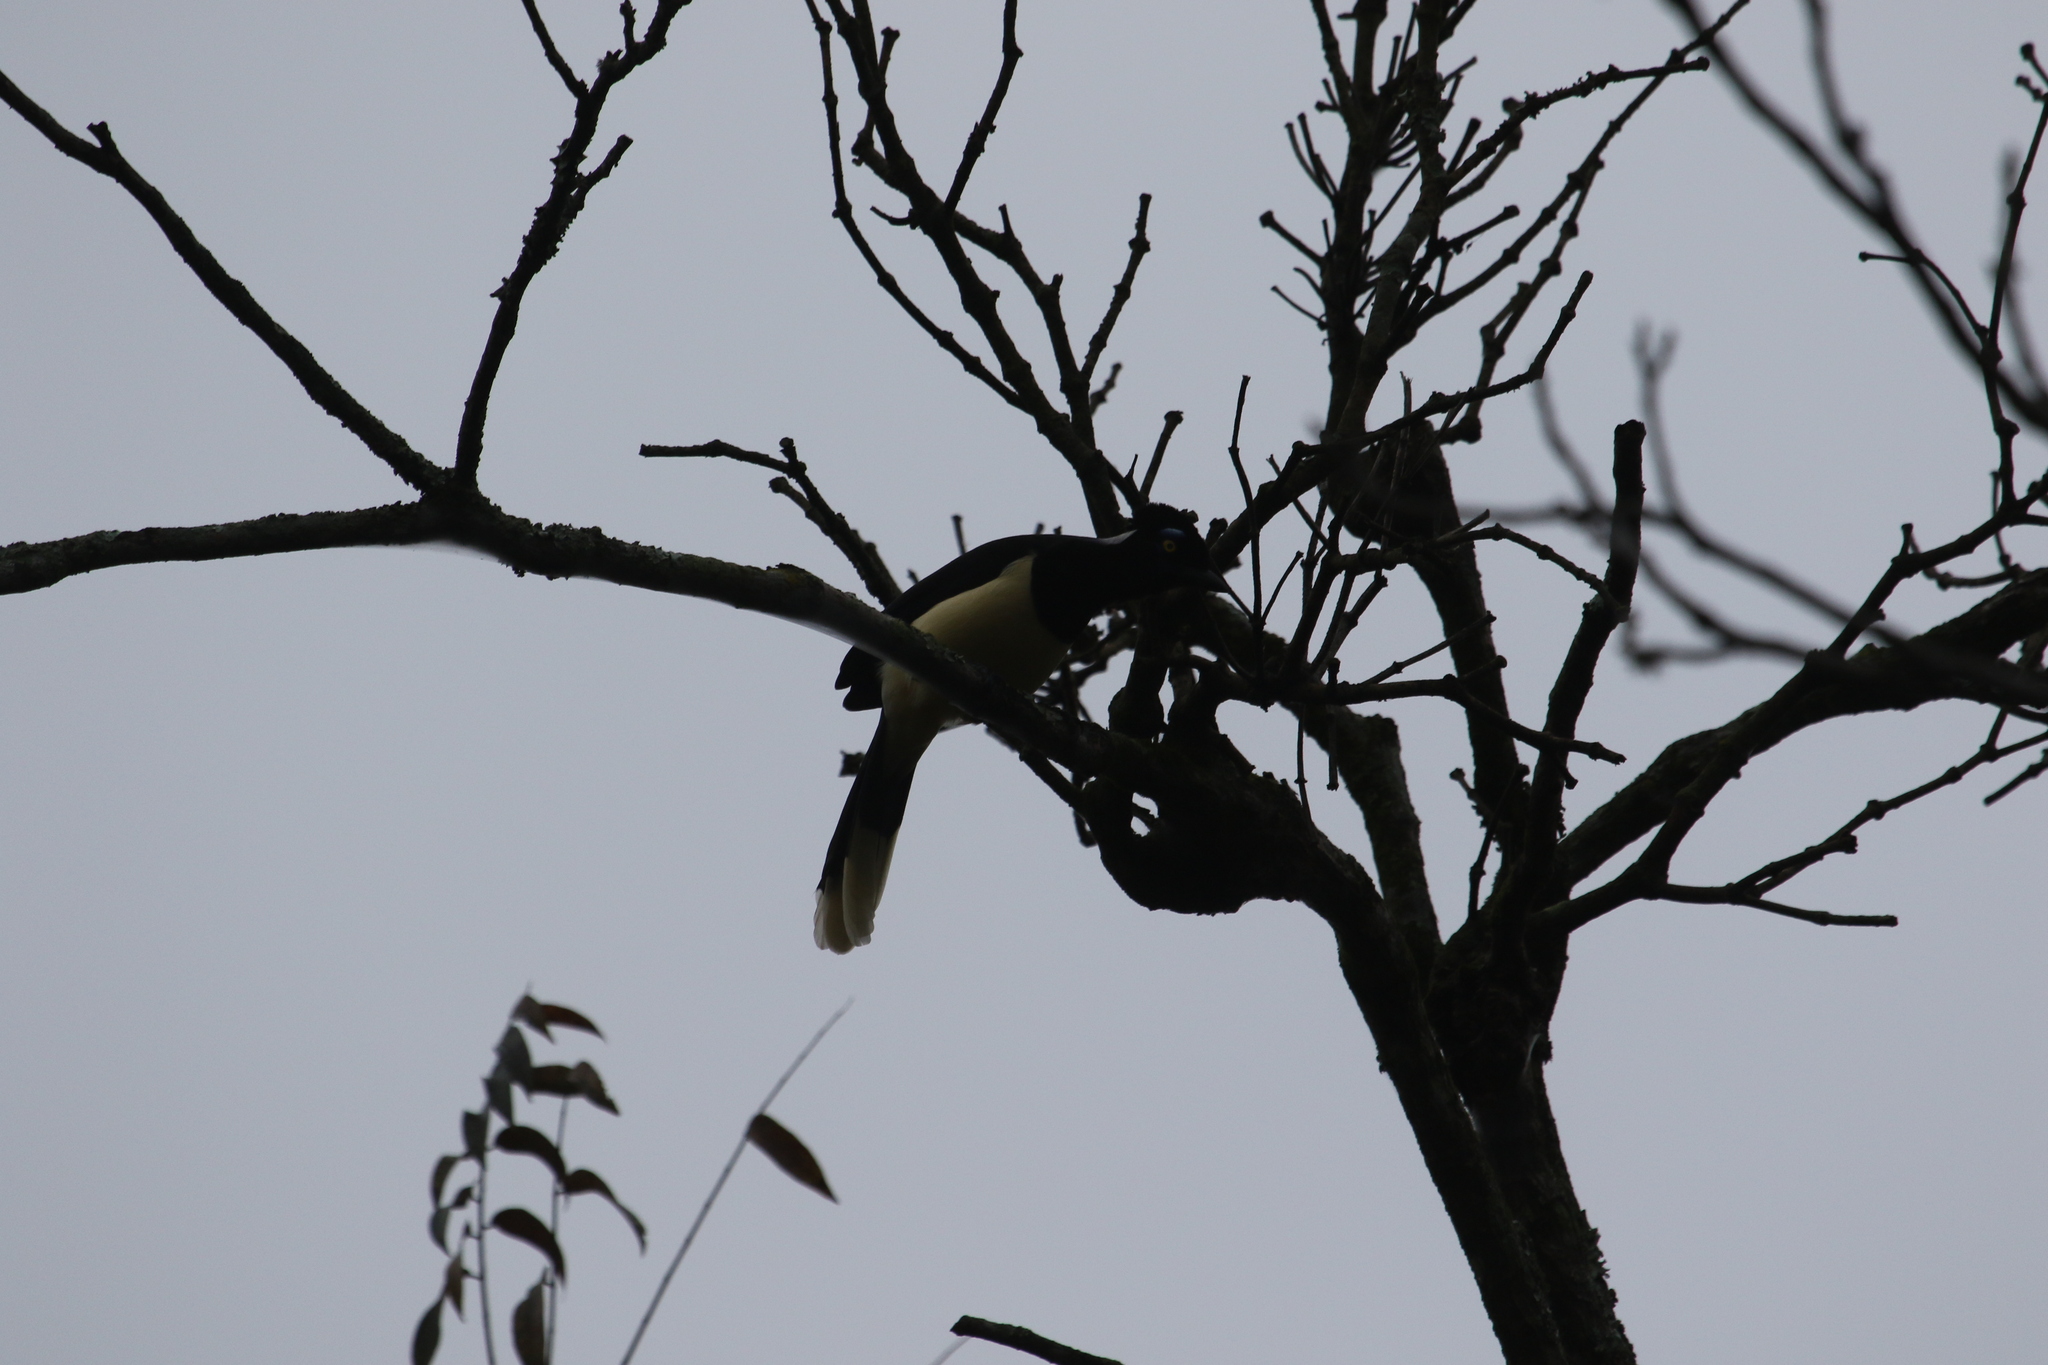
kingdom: Animalia
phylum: Chordata
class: Aves
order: Passeriformes
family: Corvidae
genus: Cyanocorax
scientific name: Cyanocorax chrysops
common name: Plush-crested jay
